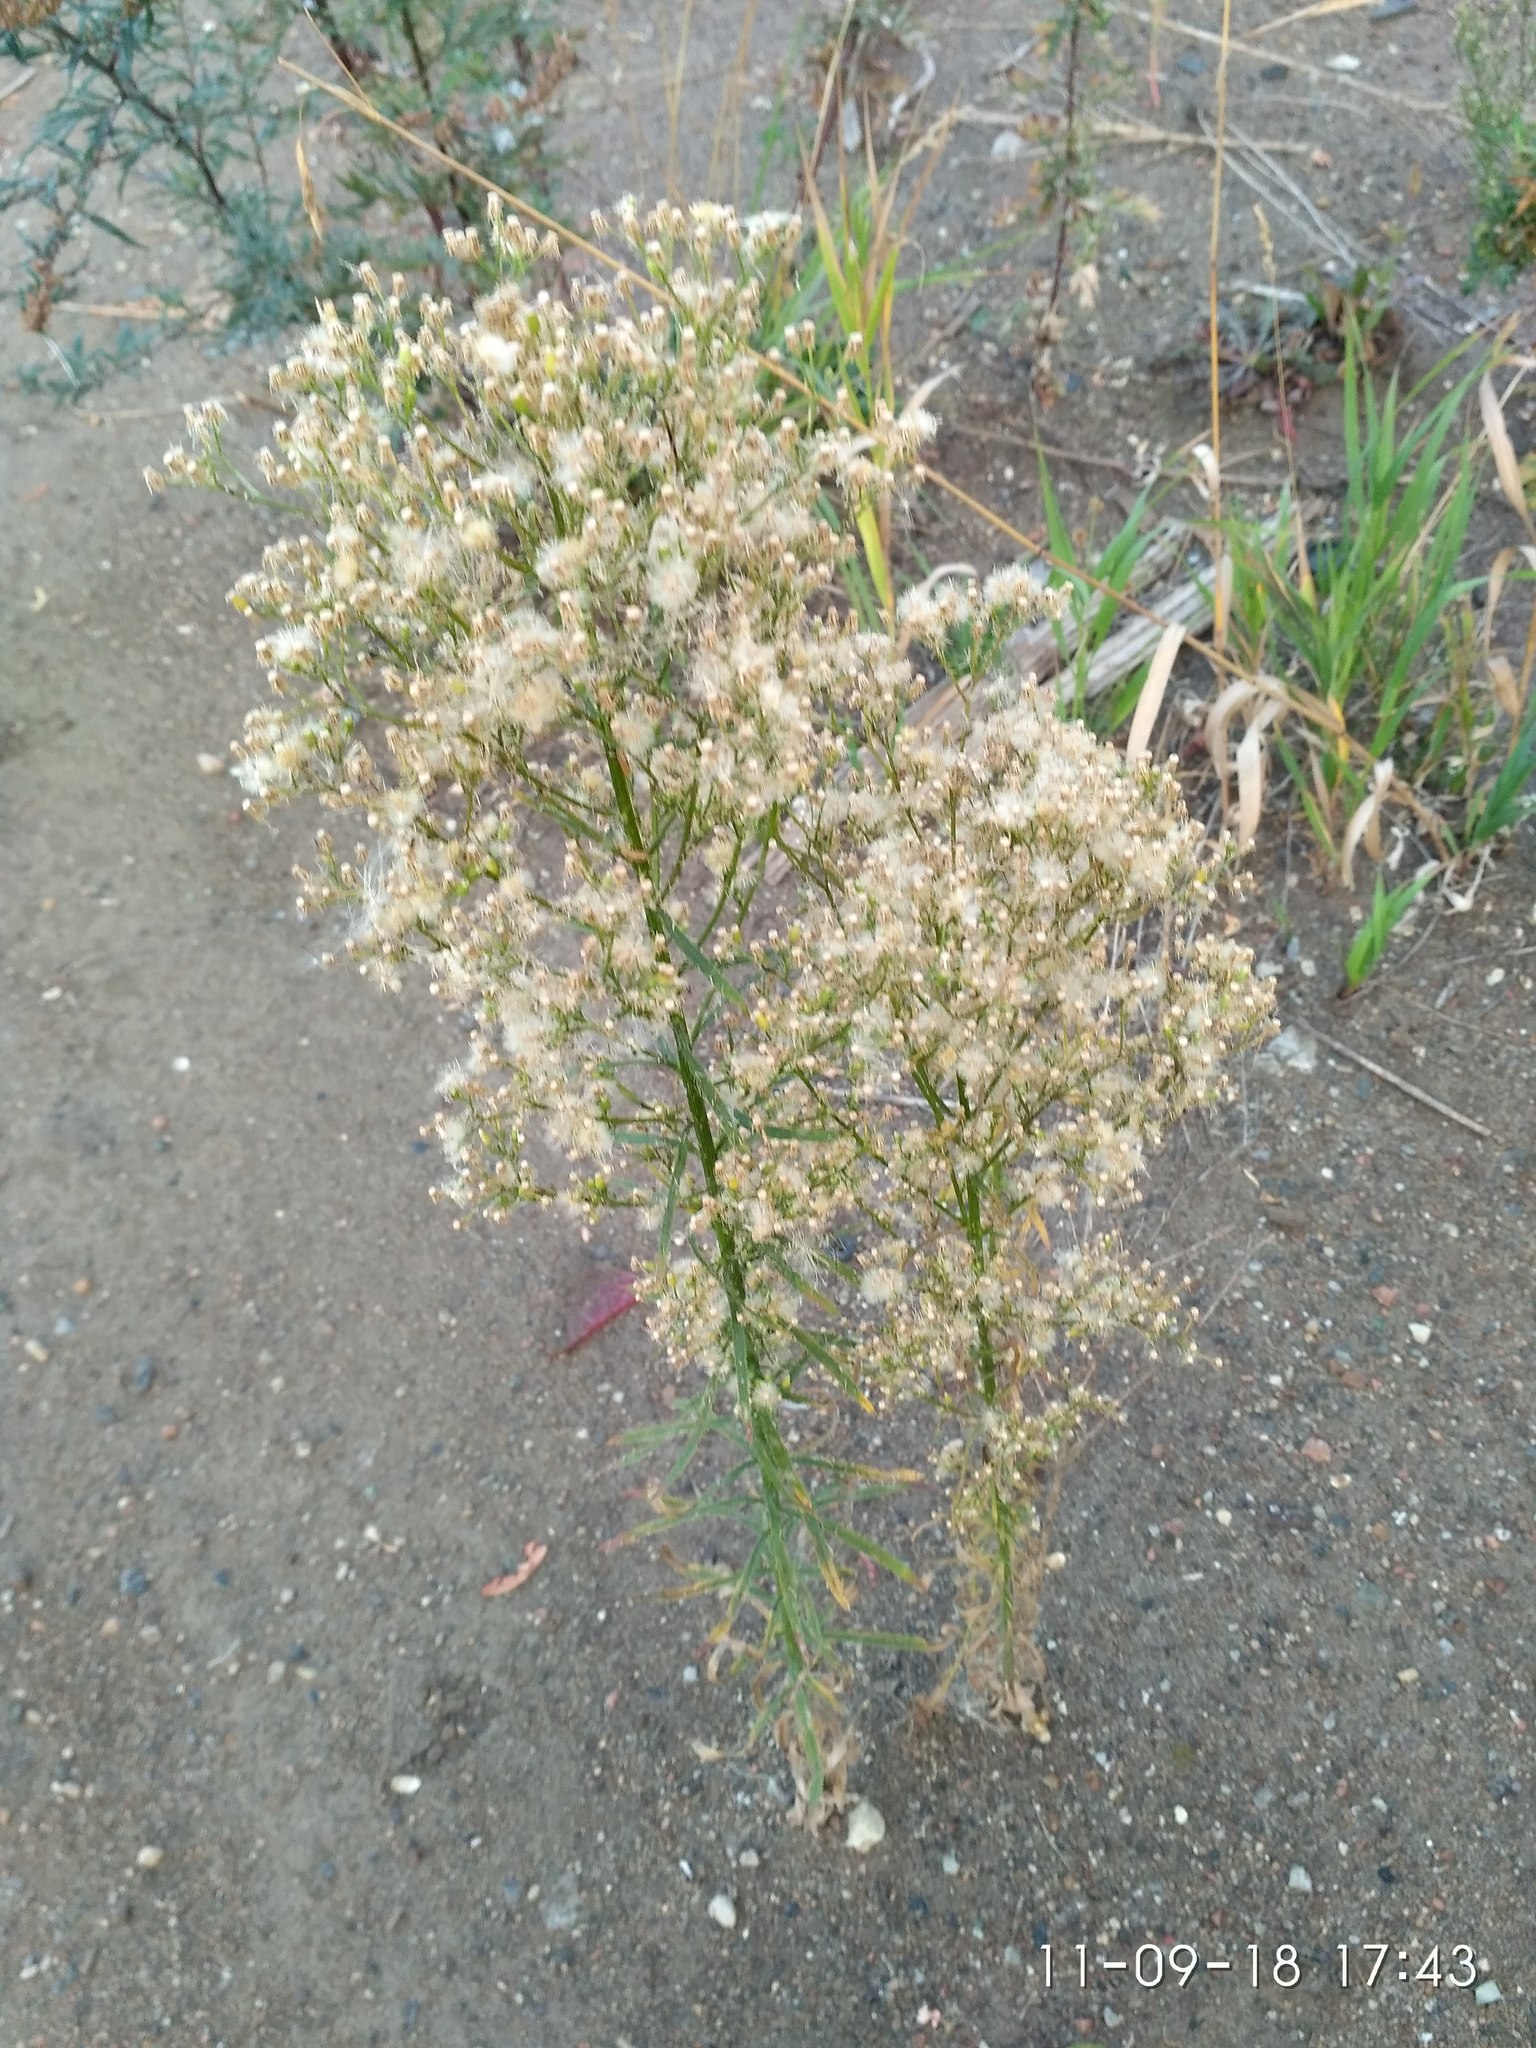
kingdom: Plantae
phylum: Tracheophyta
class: Magnoliopsida
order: Asterales
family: Asteraceae
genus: Erigeron
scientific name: Erigeron canadensis
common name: Canadian fleabane
